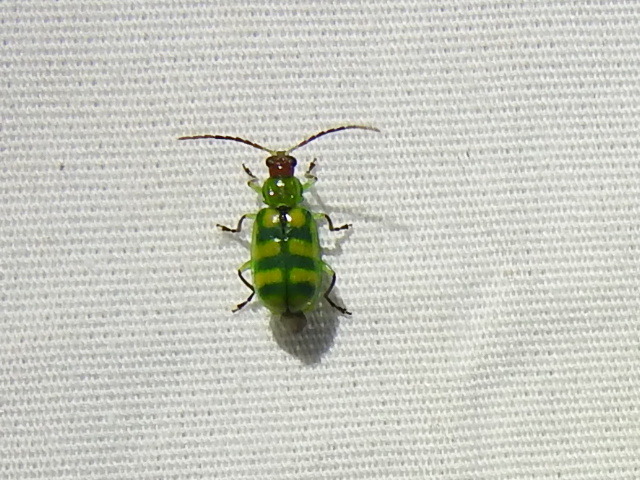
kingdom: Animalia
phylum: Arthropoda
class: Insecta
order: Coleoptera
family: Chrysomelidae
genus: Diabrotica
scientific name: Diabrotica balteata
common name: Leaf beetle
